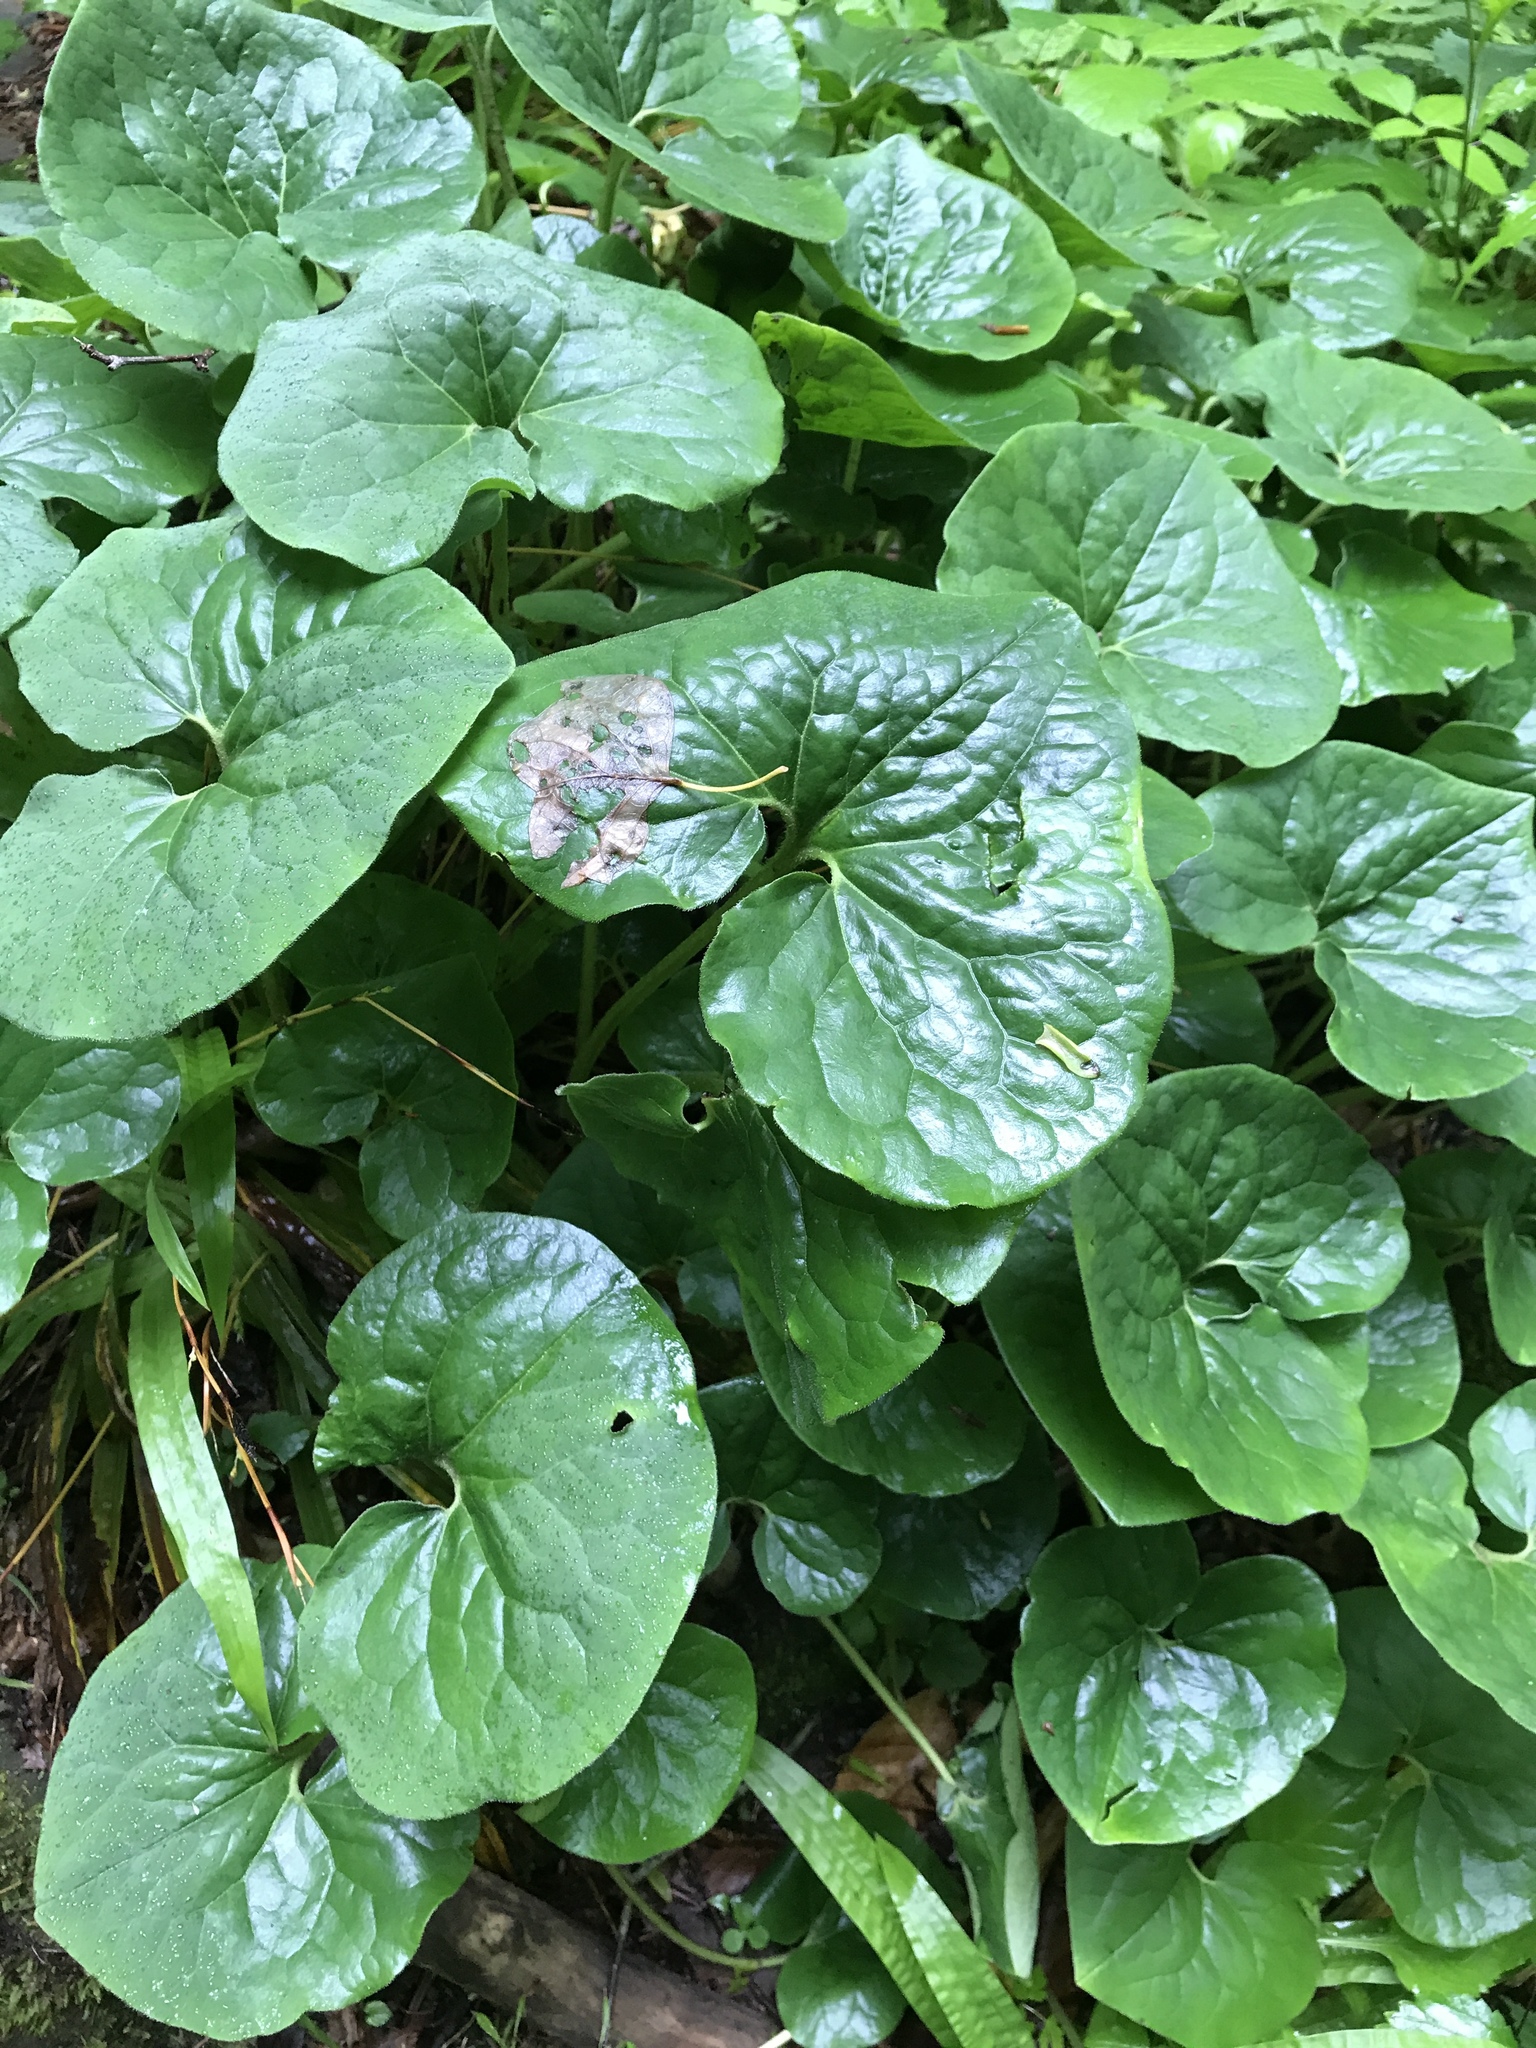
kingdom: Plantae
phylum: Tracheophyta
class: Magnoliopsida
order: Piperales
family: Aristolochiaceae
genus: Asarum
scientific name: Asarum canadense
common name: Wild ginger
